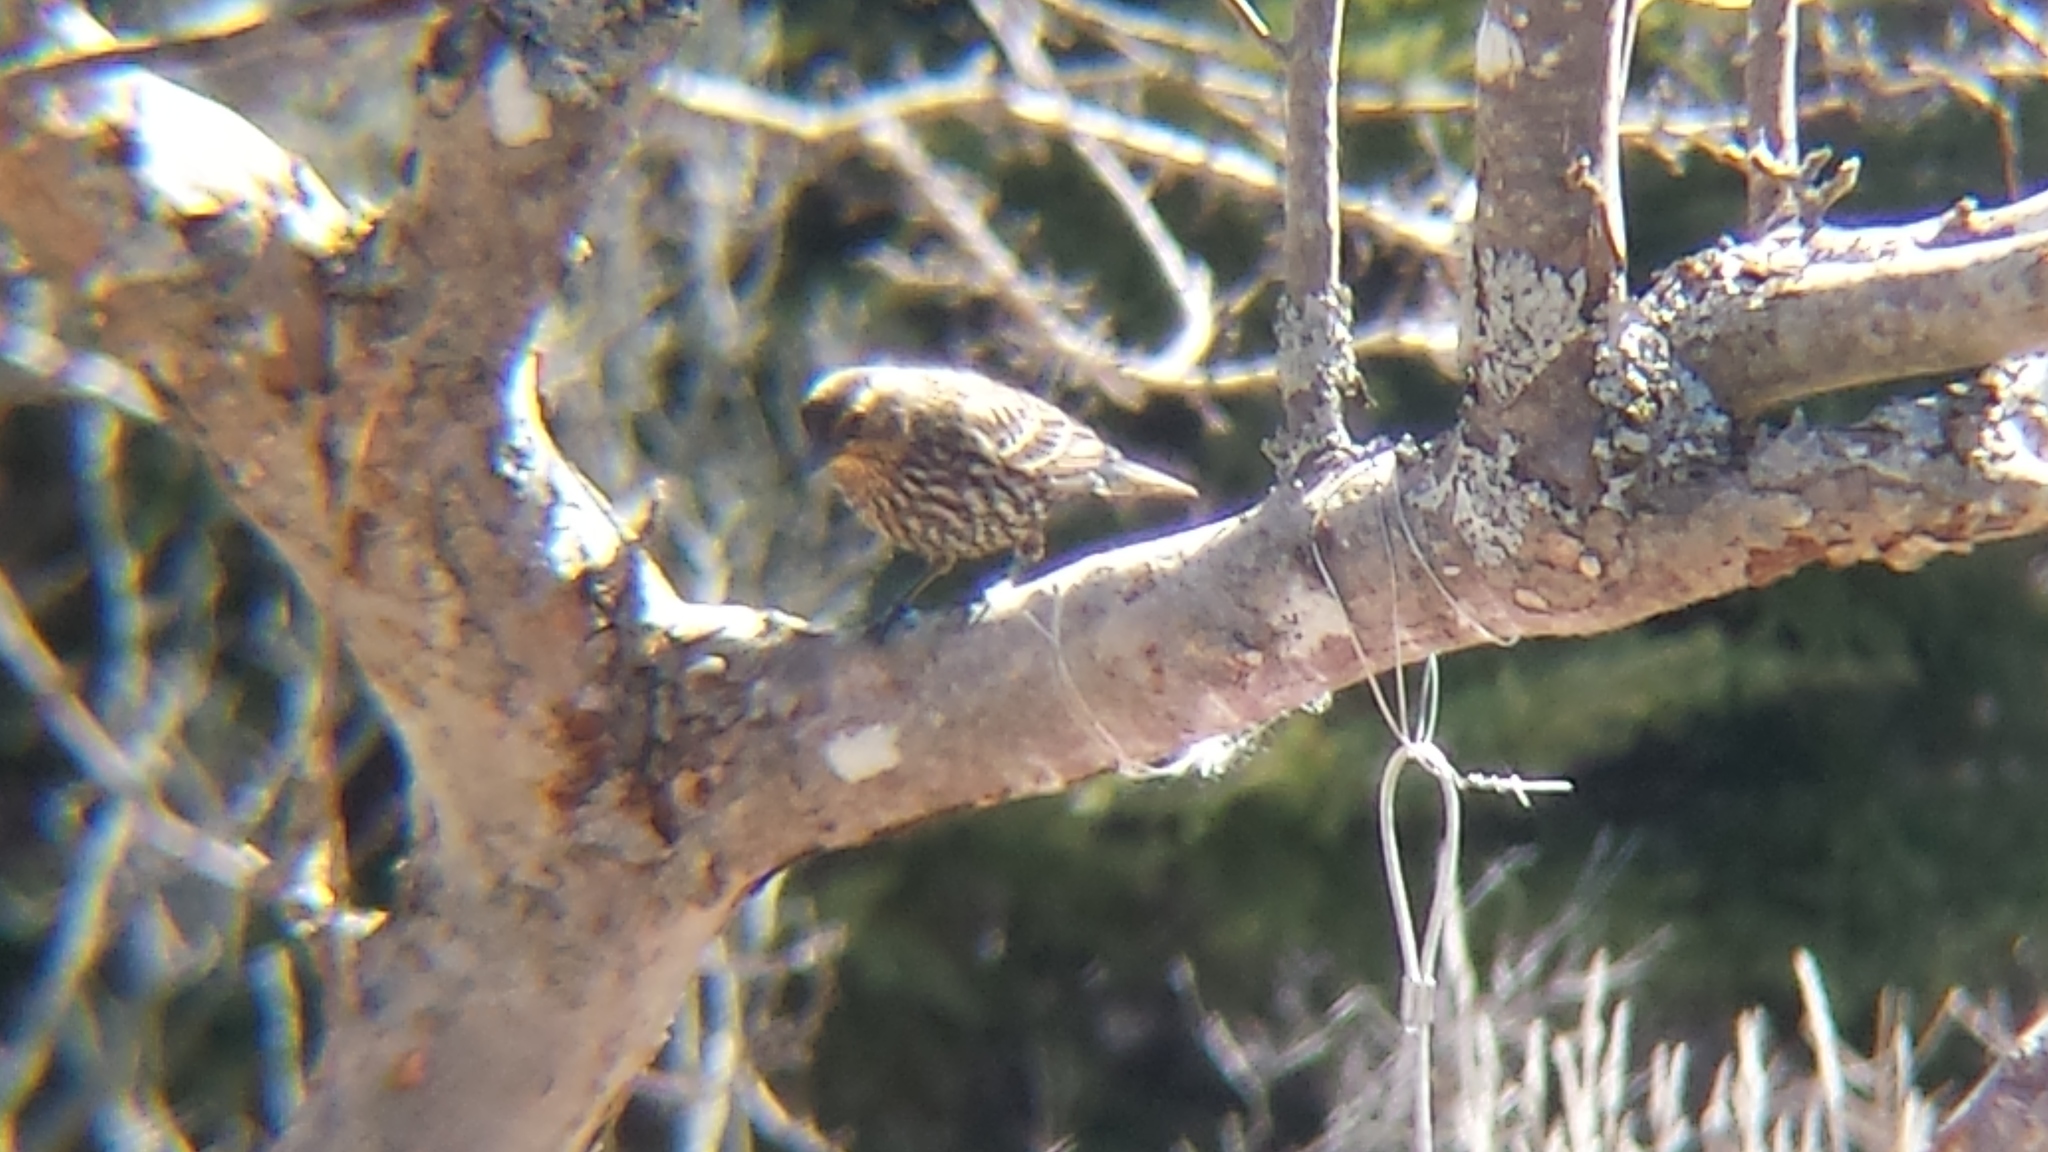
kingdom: Animalia
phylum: Chordata
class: Aves
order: Passeriformes
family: Icteridae
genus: Agelaius
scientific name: Agelaius phoeniceus
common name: Red-winged blackbird
